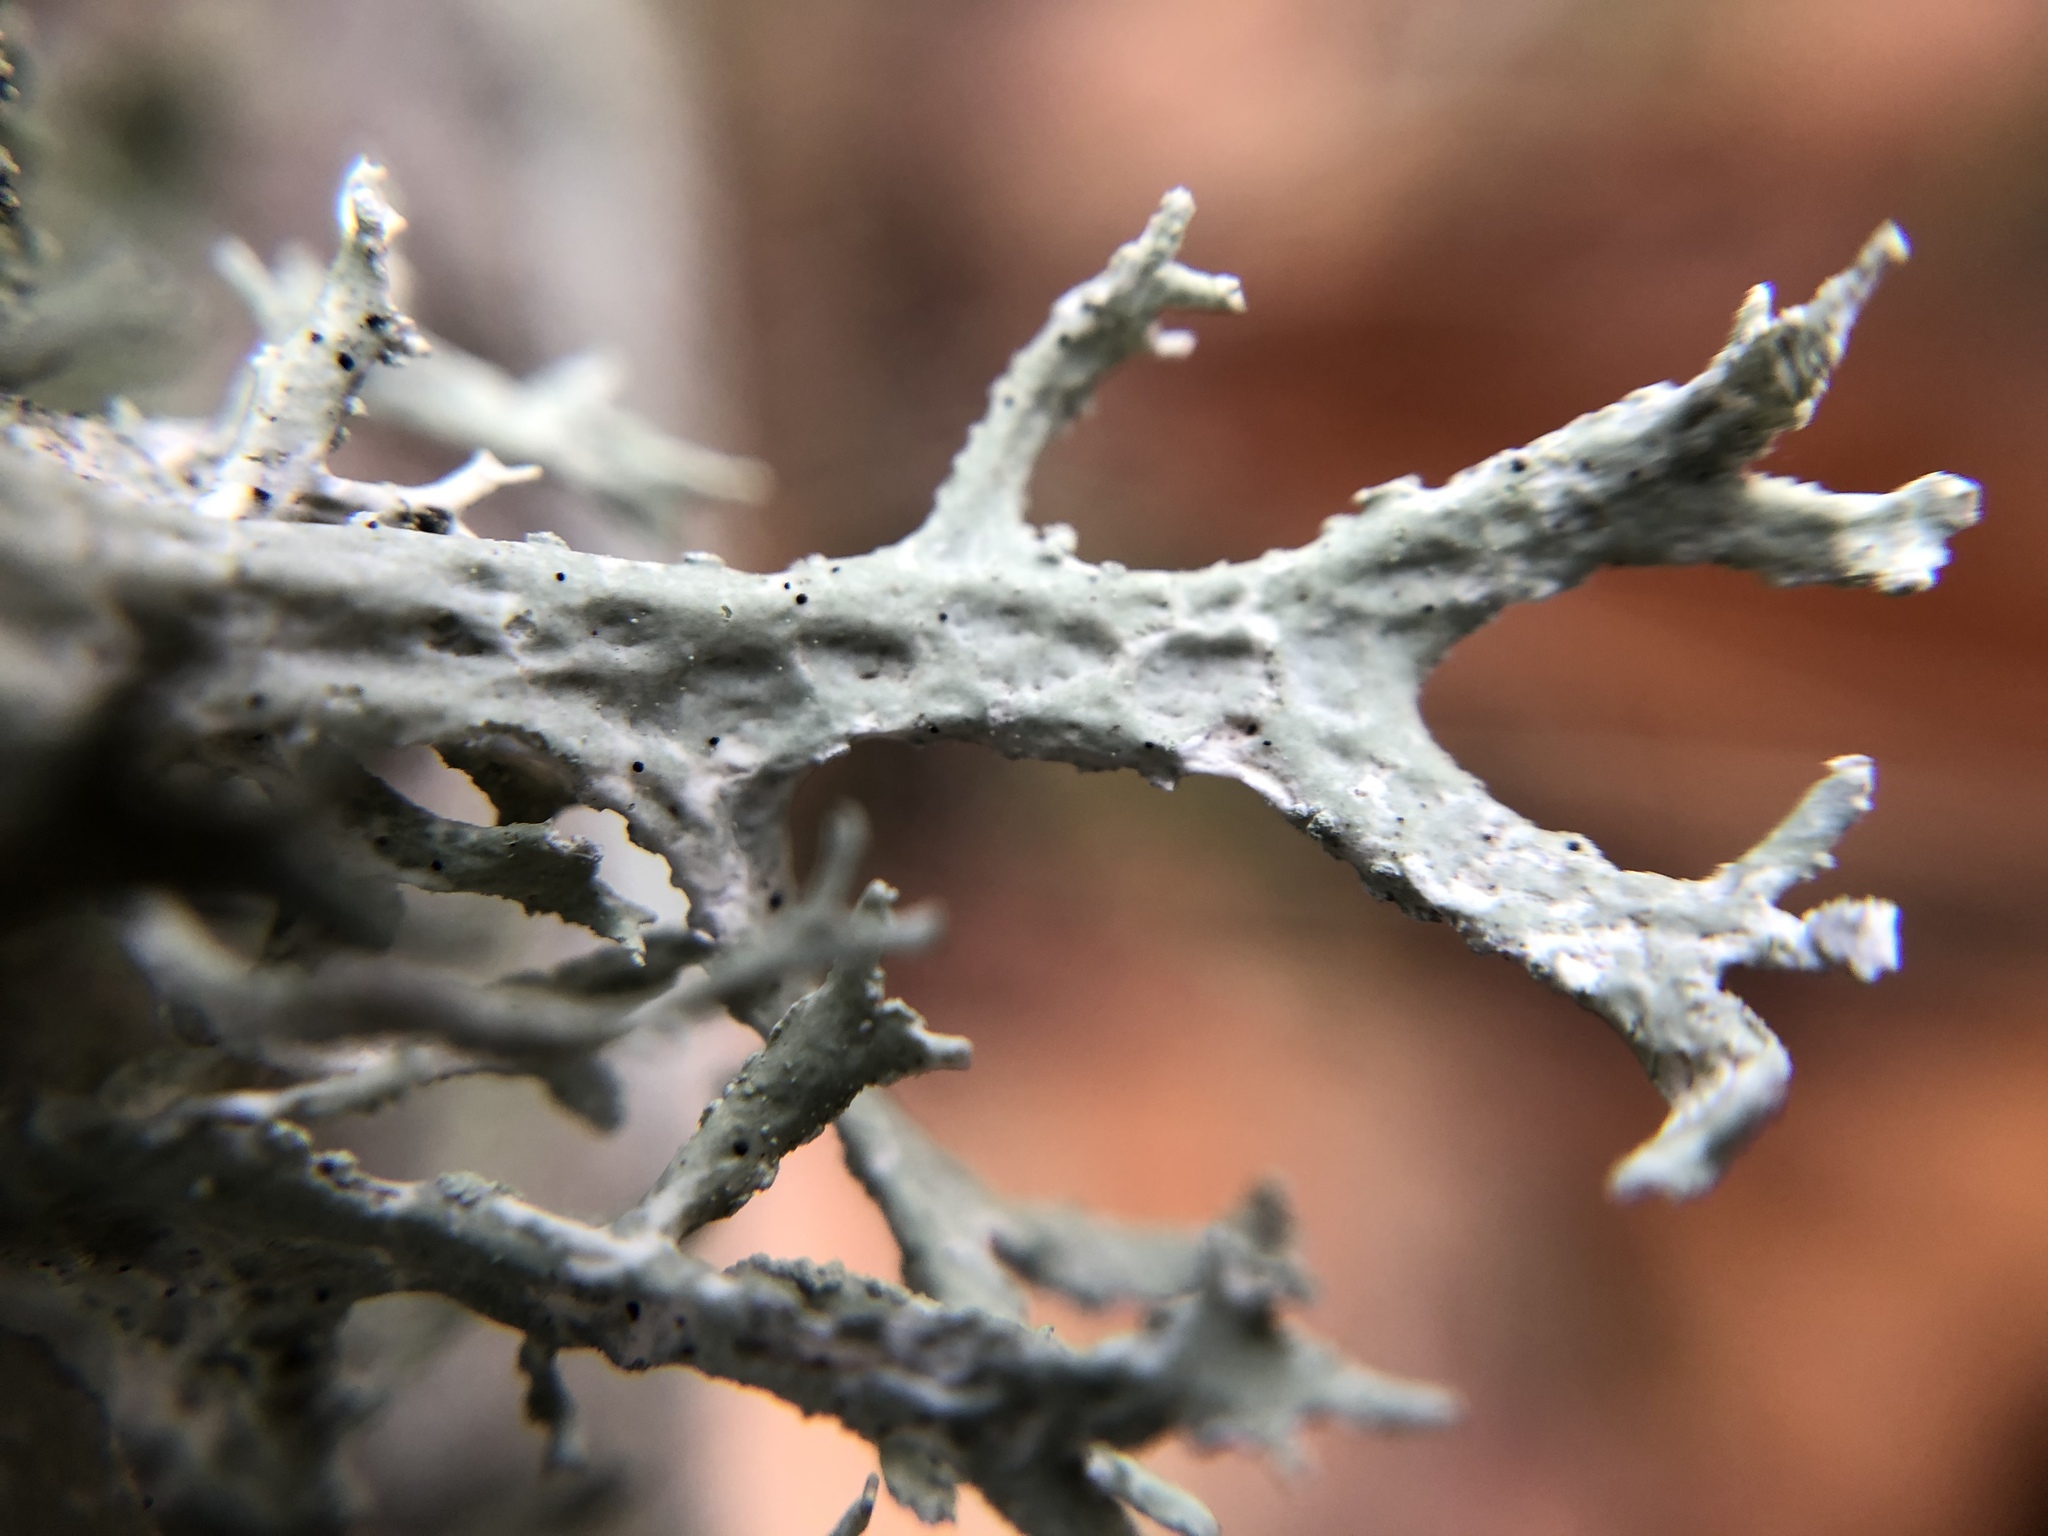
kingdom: Fungi
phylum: Ascomycota
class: Lecanoromycetes
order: Lecanorales
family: Parmeliaceae
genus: Evernia
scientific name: Evernia prunastri
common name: Oak moss
